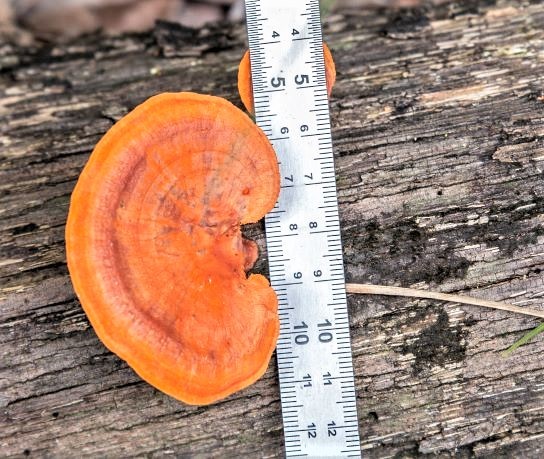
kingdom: Fungi
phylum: Basidiomycota
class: Agaricomycetes
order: Polyporales
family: Polyporaceae
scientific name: Polyporaceae
